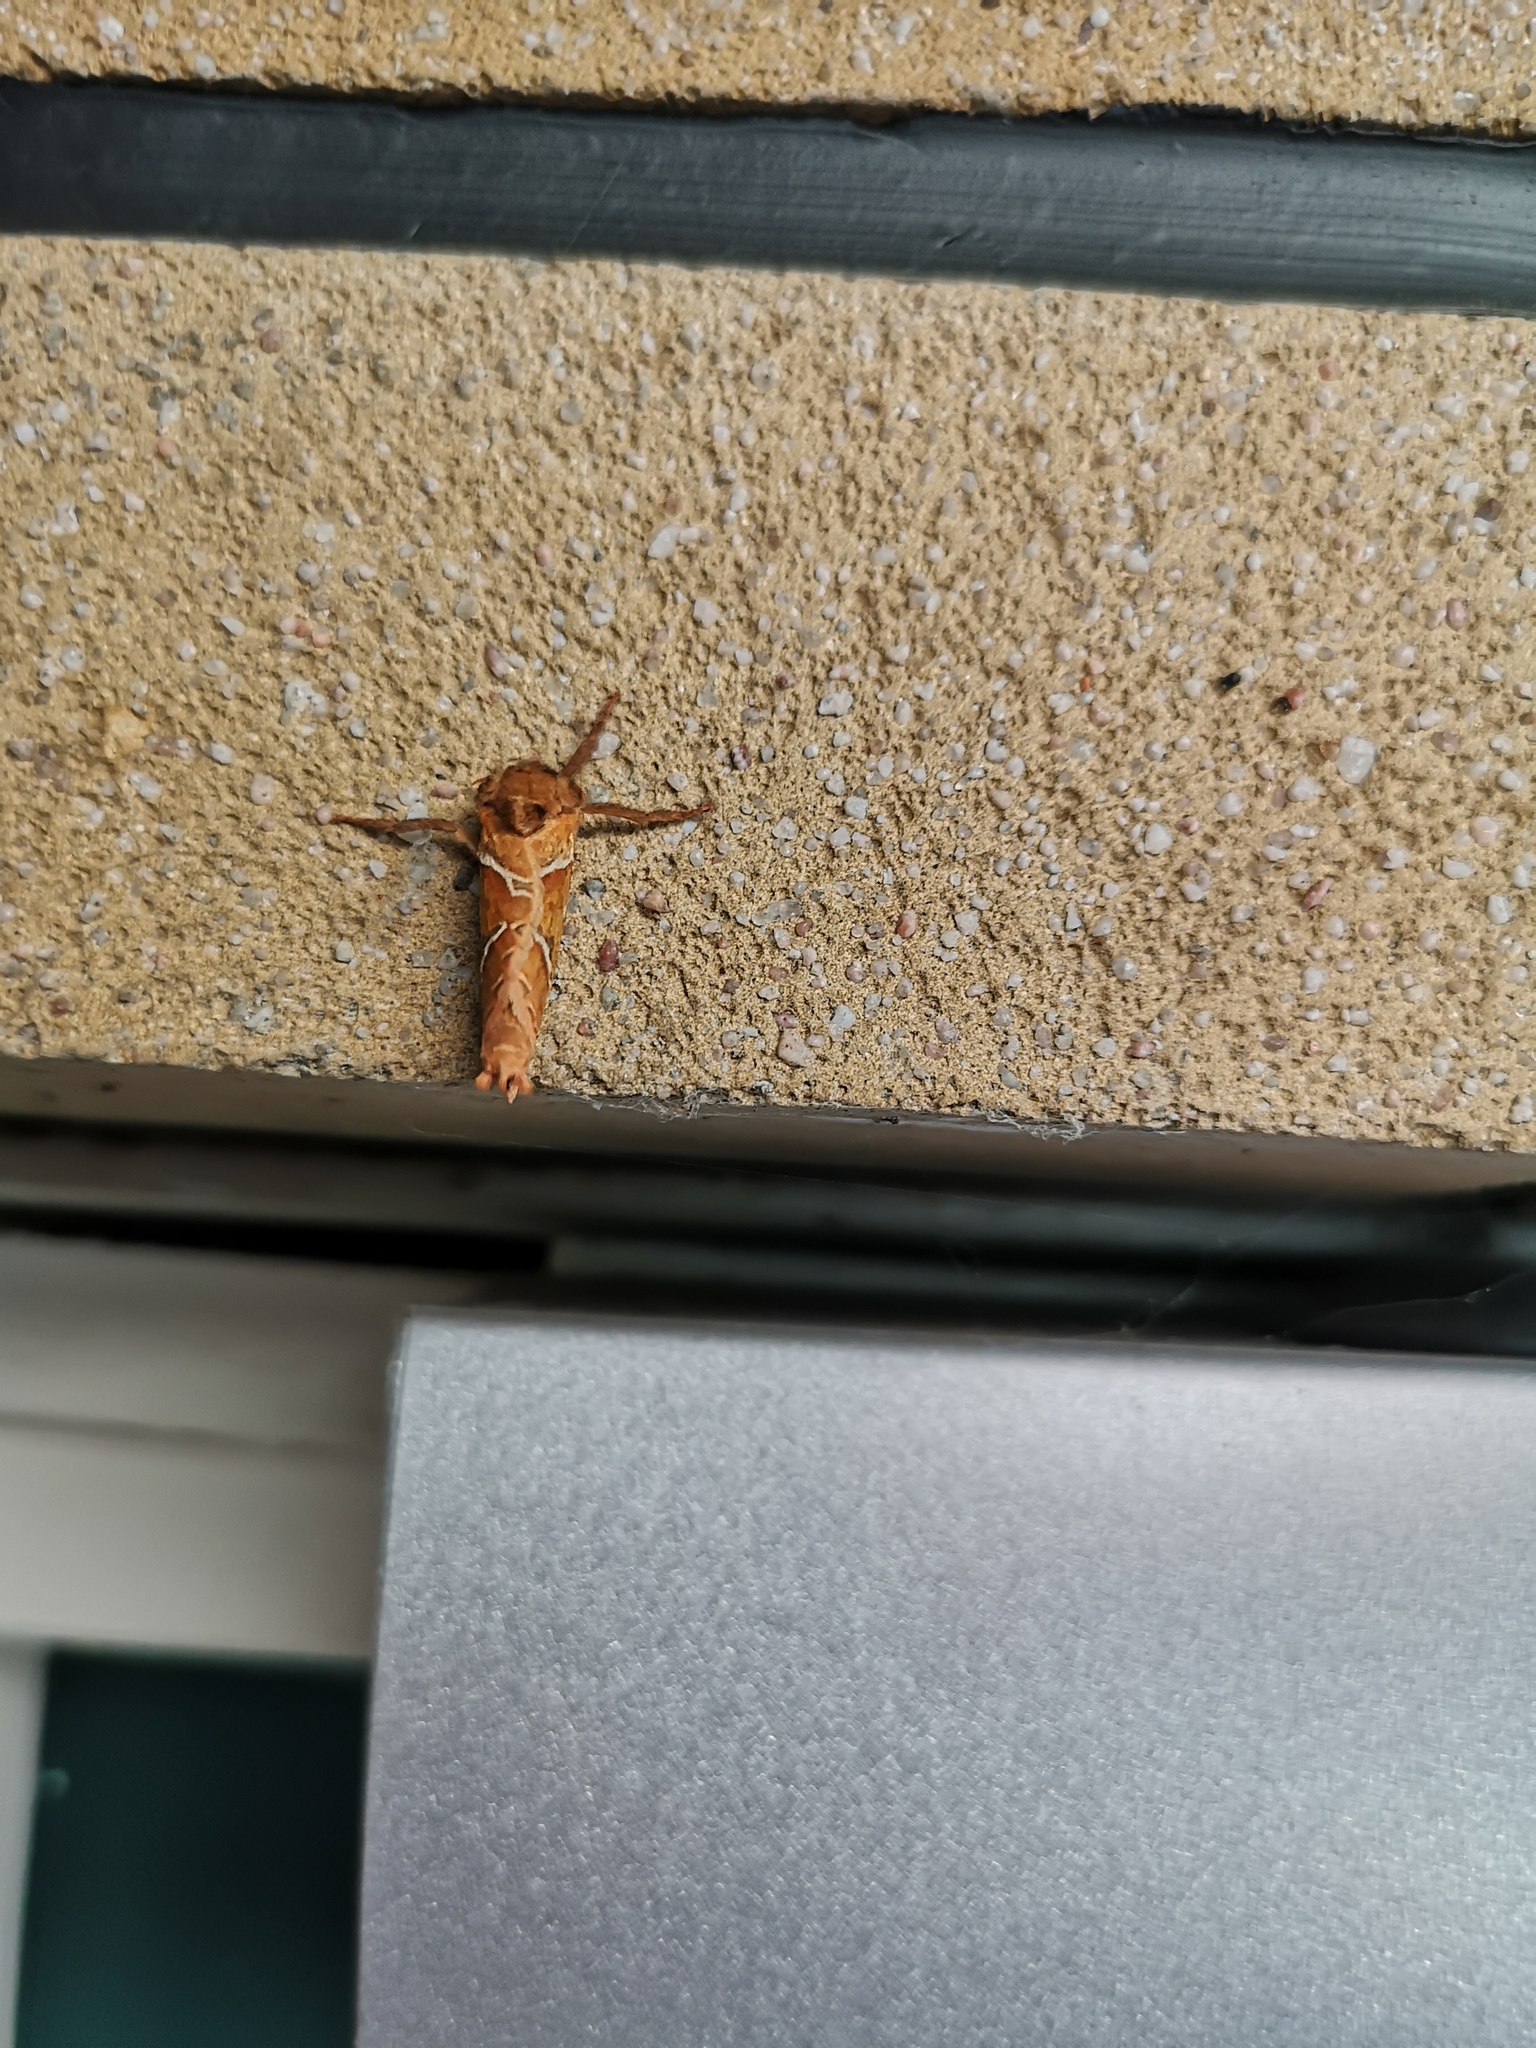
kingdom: Animalia
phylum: Arthropoda
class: Insecta
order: Lepidoptera
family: Hepialidae
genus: Triodia
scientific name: Triodia sylvina
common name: Orange swift
